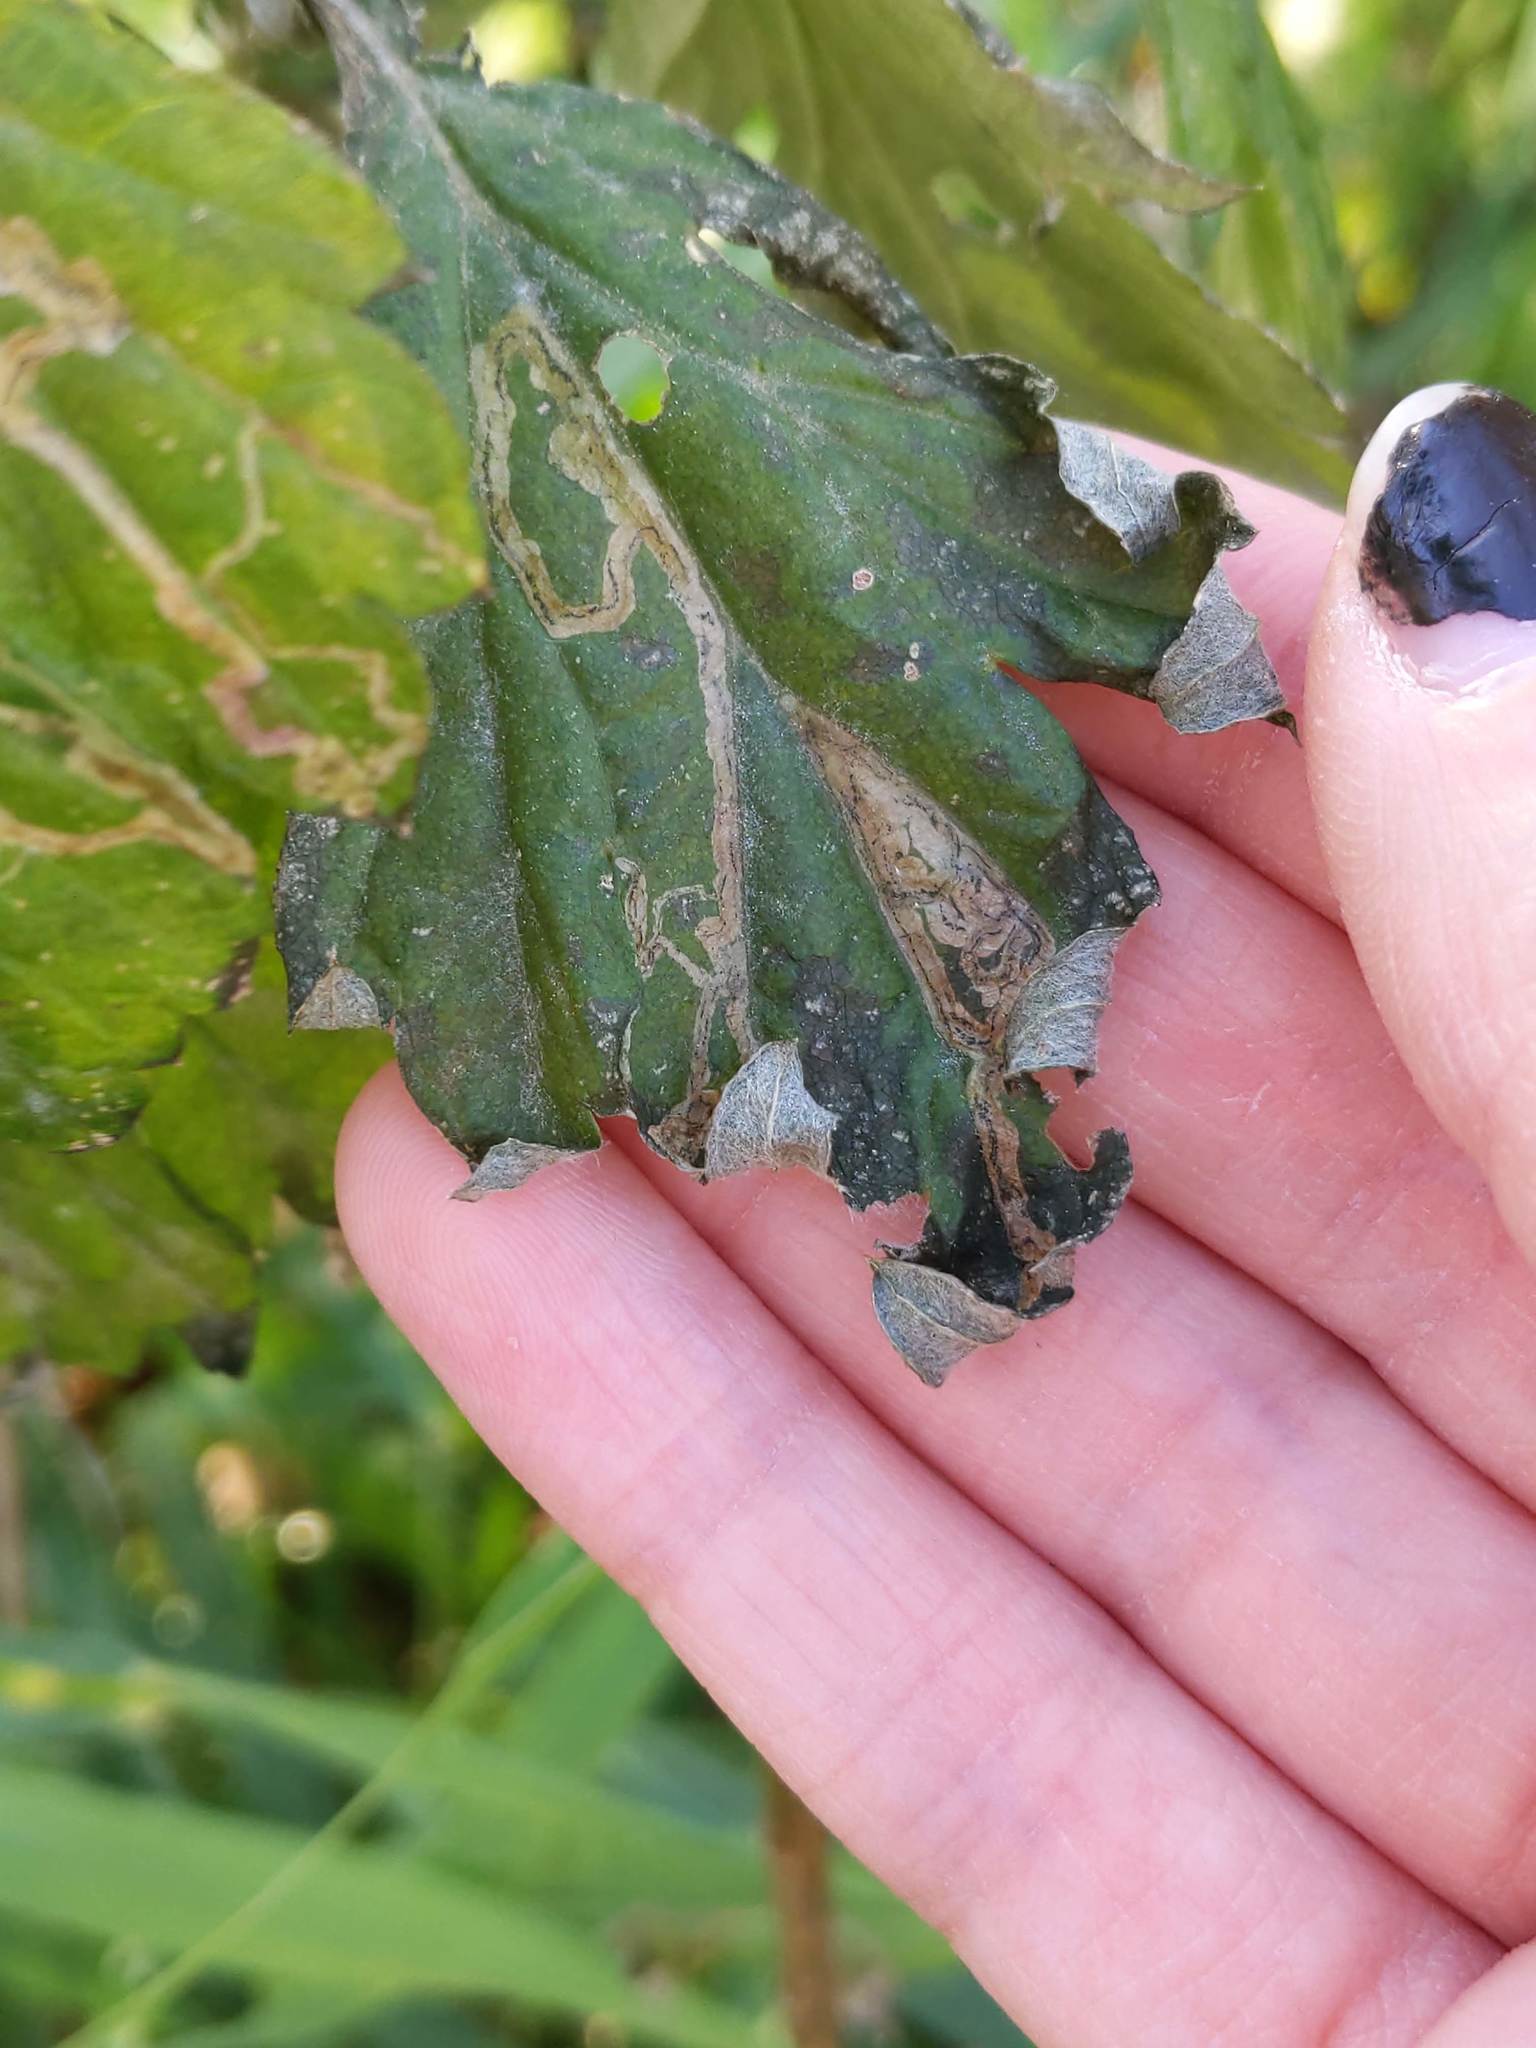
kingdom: Animalia
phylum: Arthropoda
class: Insecta
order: Diptera
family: Agromyzidae
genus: Liriomyza
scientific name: Liriomyza ptarmicae
